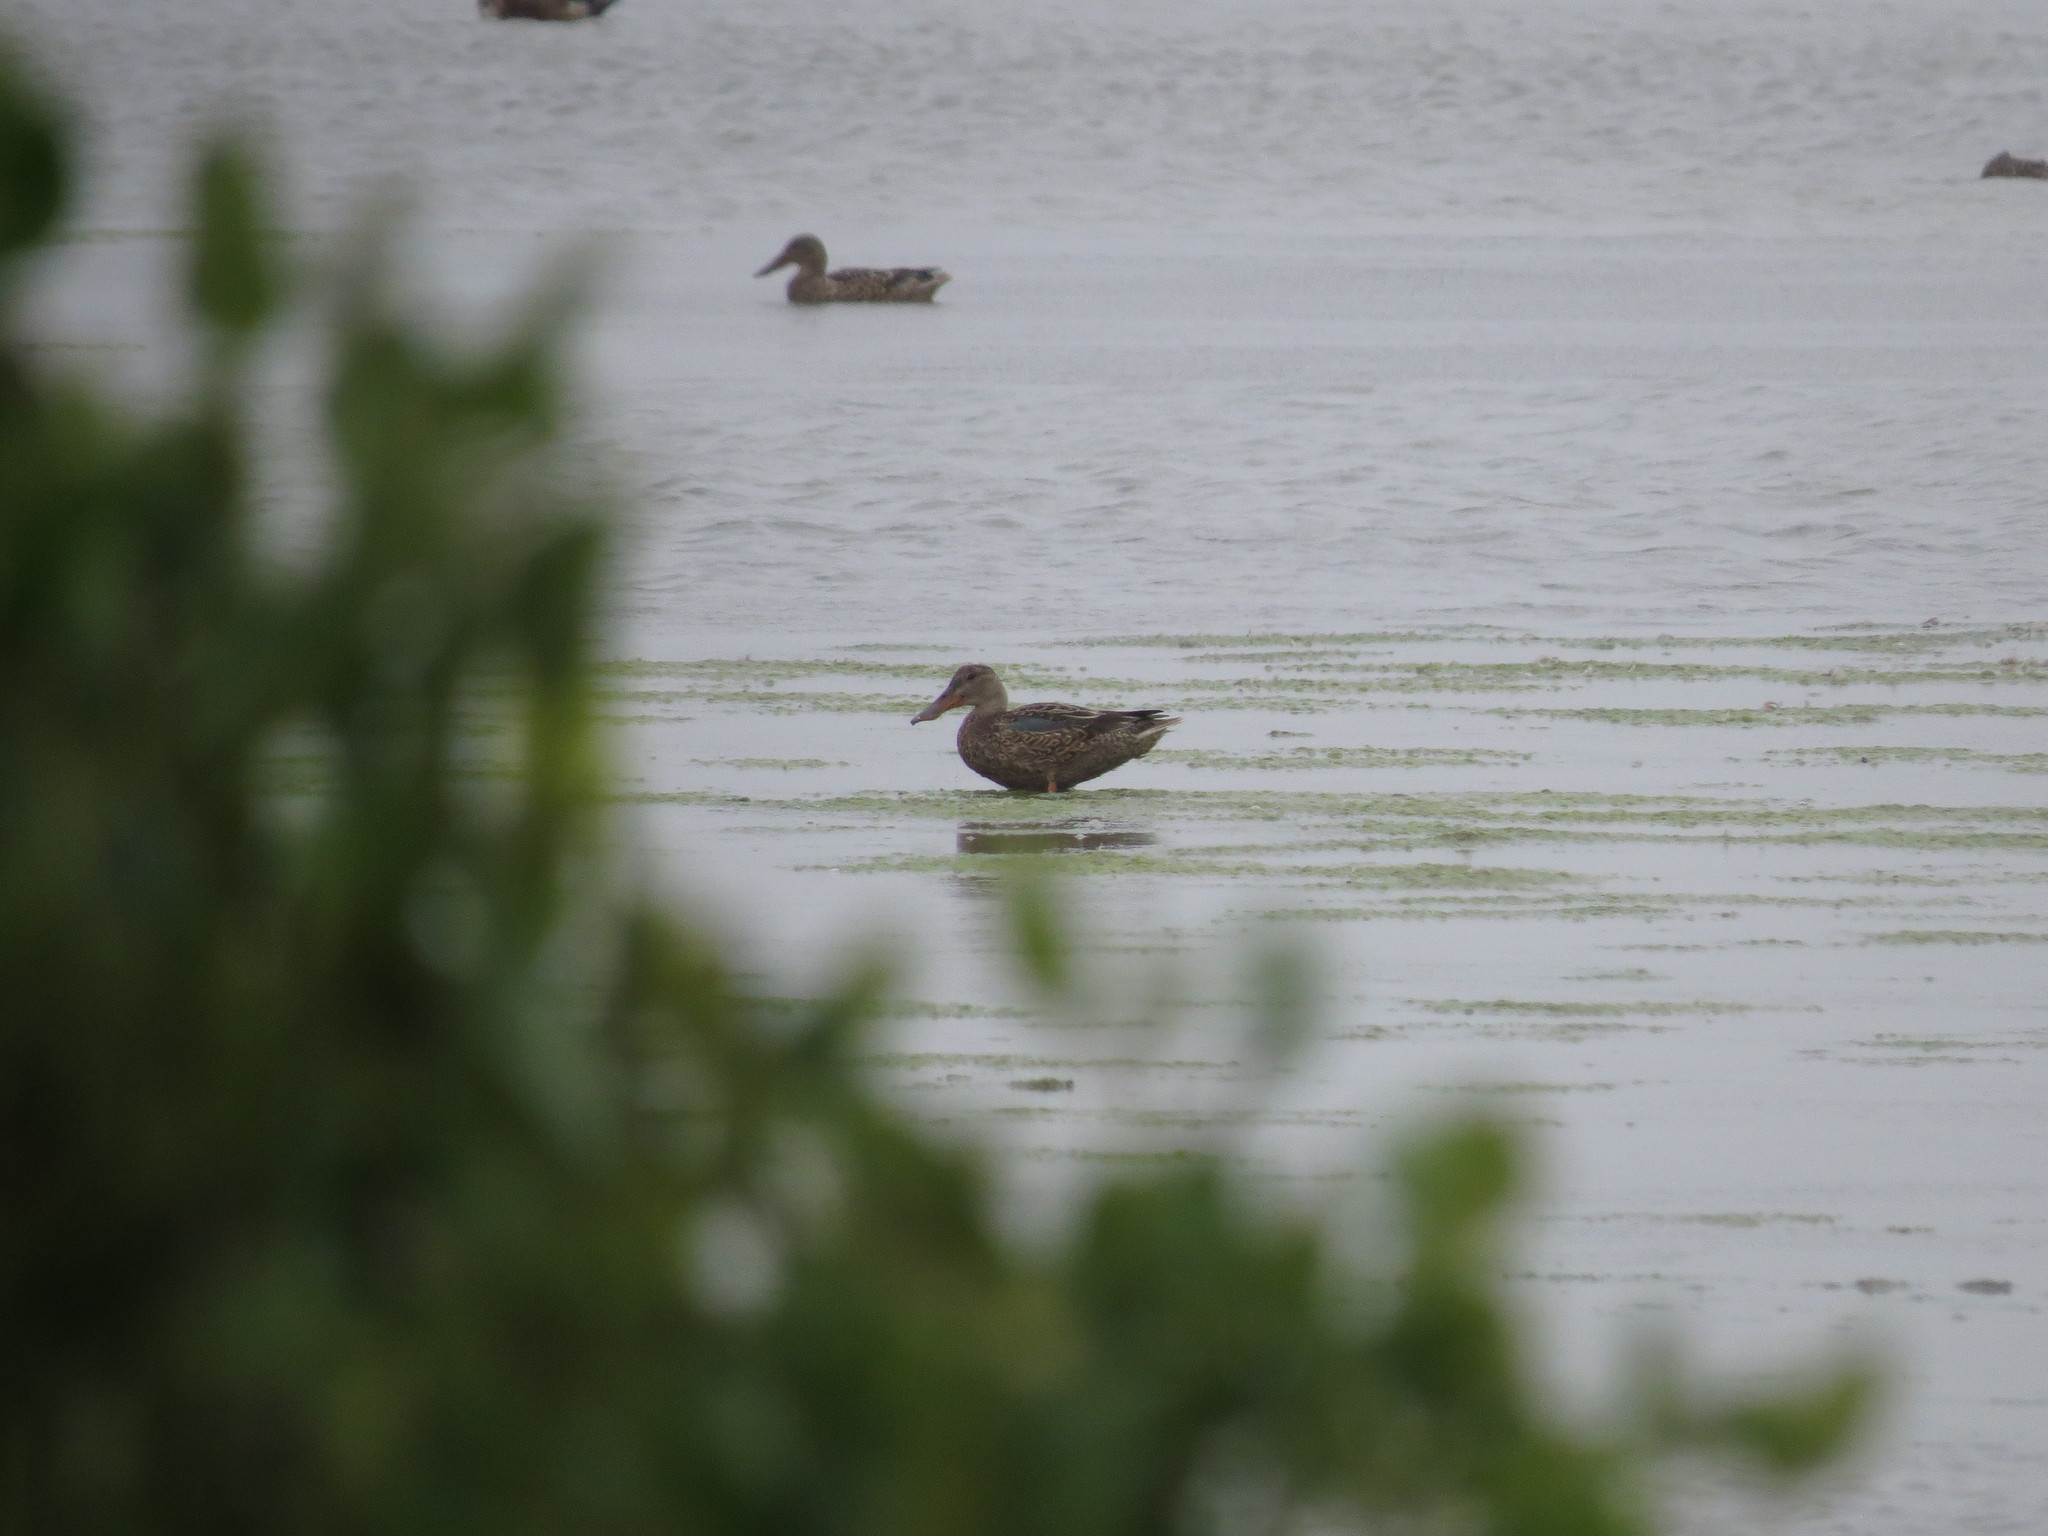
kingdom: Animalia
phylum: Chordata
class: Aves
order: Anseriformes
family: Anatidae
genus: Spatula
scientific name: Spatula clypeata
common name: Northern shoveler
